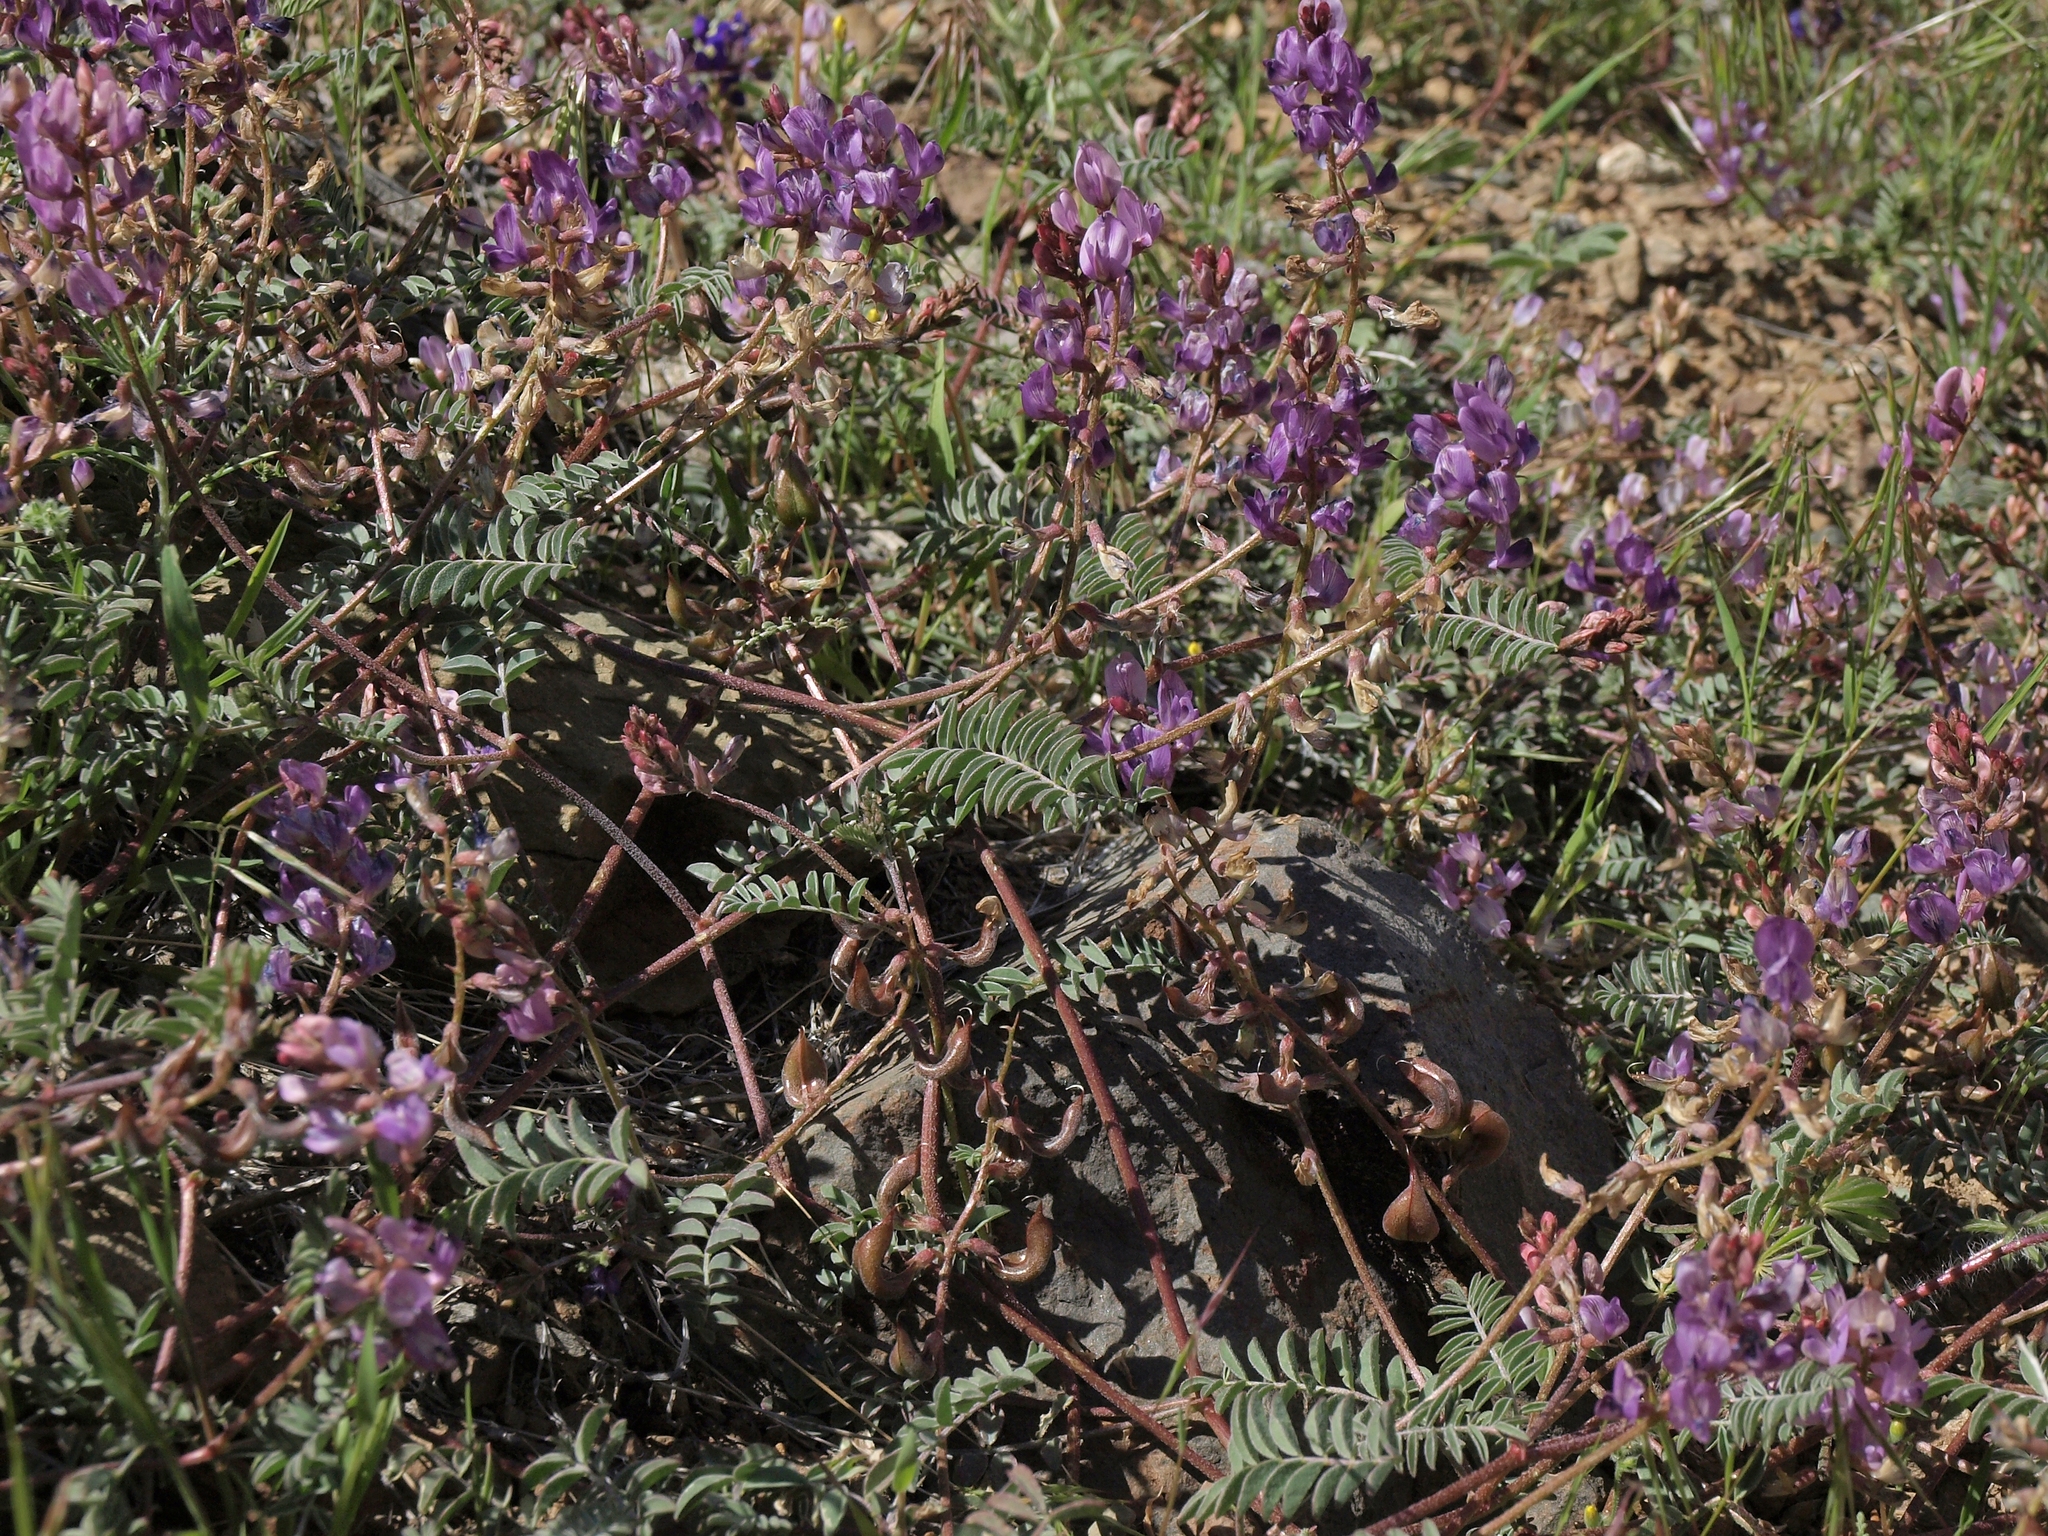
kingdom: Plantae
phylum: Tracheophyta
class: Magnoliopsida
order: Fabales
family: Fabaceae
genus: Astragalus
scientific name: Astragalus inyoensis
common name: Inyo locoweed
